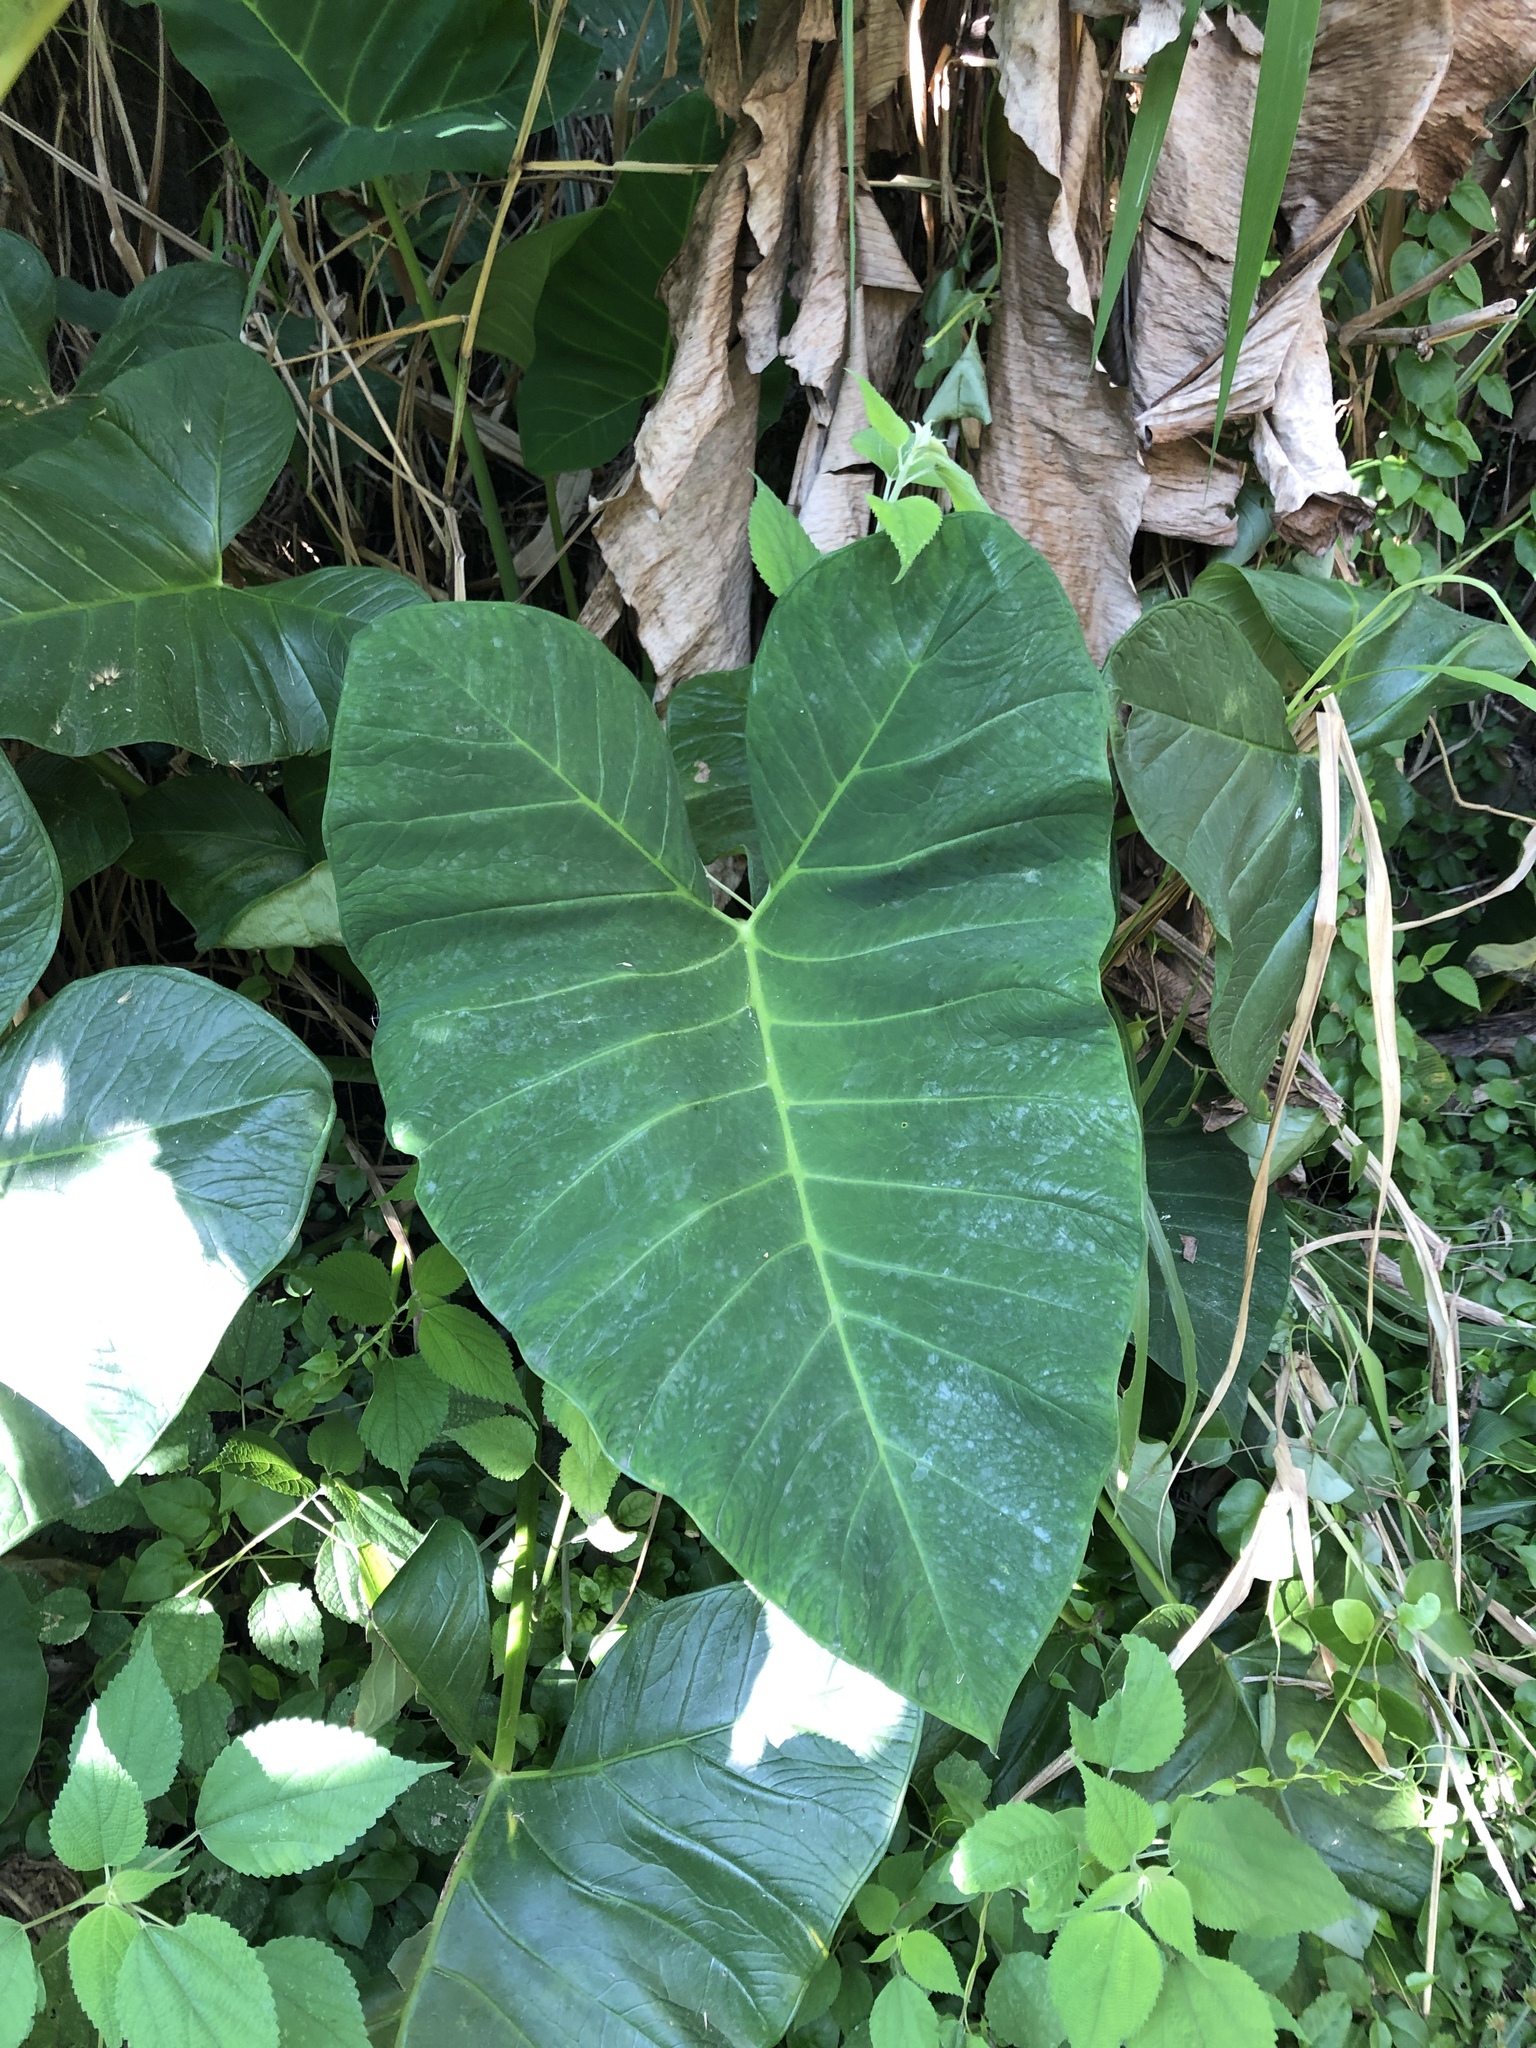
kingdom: Plantae
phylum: Tracheophyta
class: Liliopsida
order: Alismatales
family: Araceae
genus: Xanthosoma
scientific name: Xanthosoma sagittifolium
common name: Arrowleaf elephant's ear
